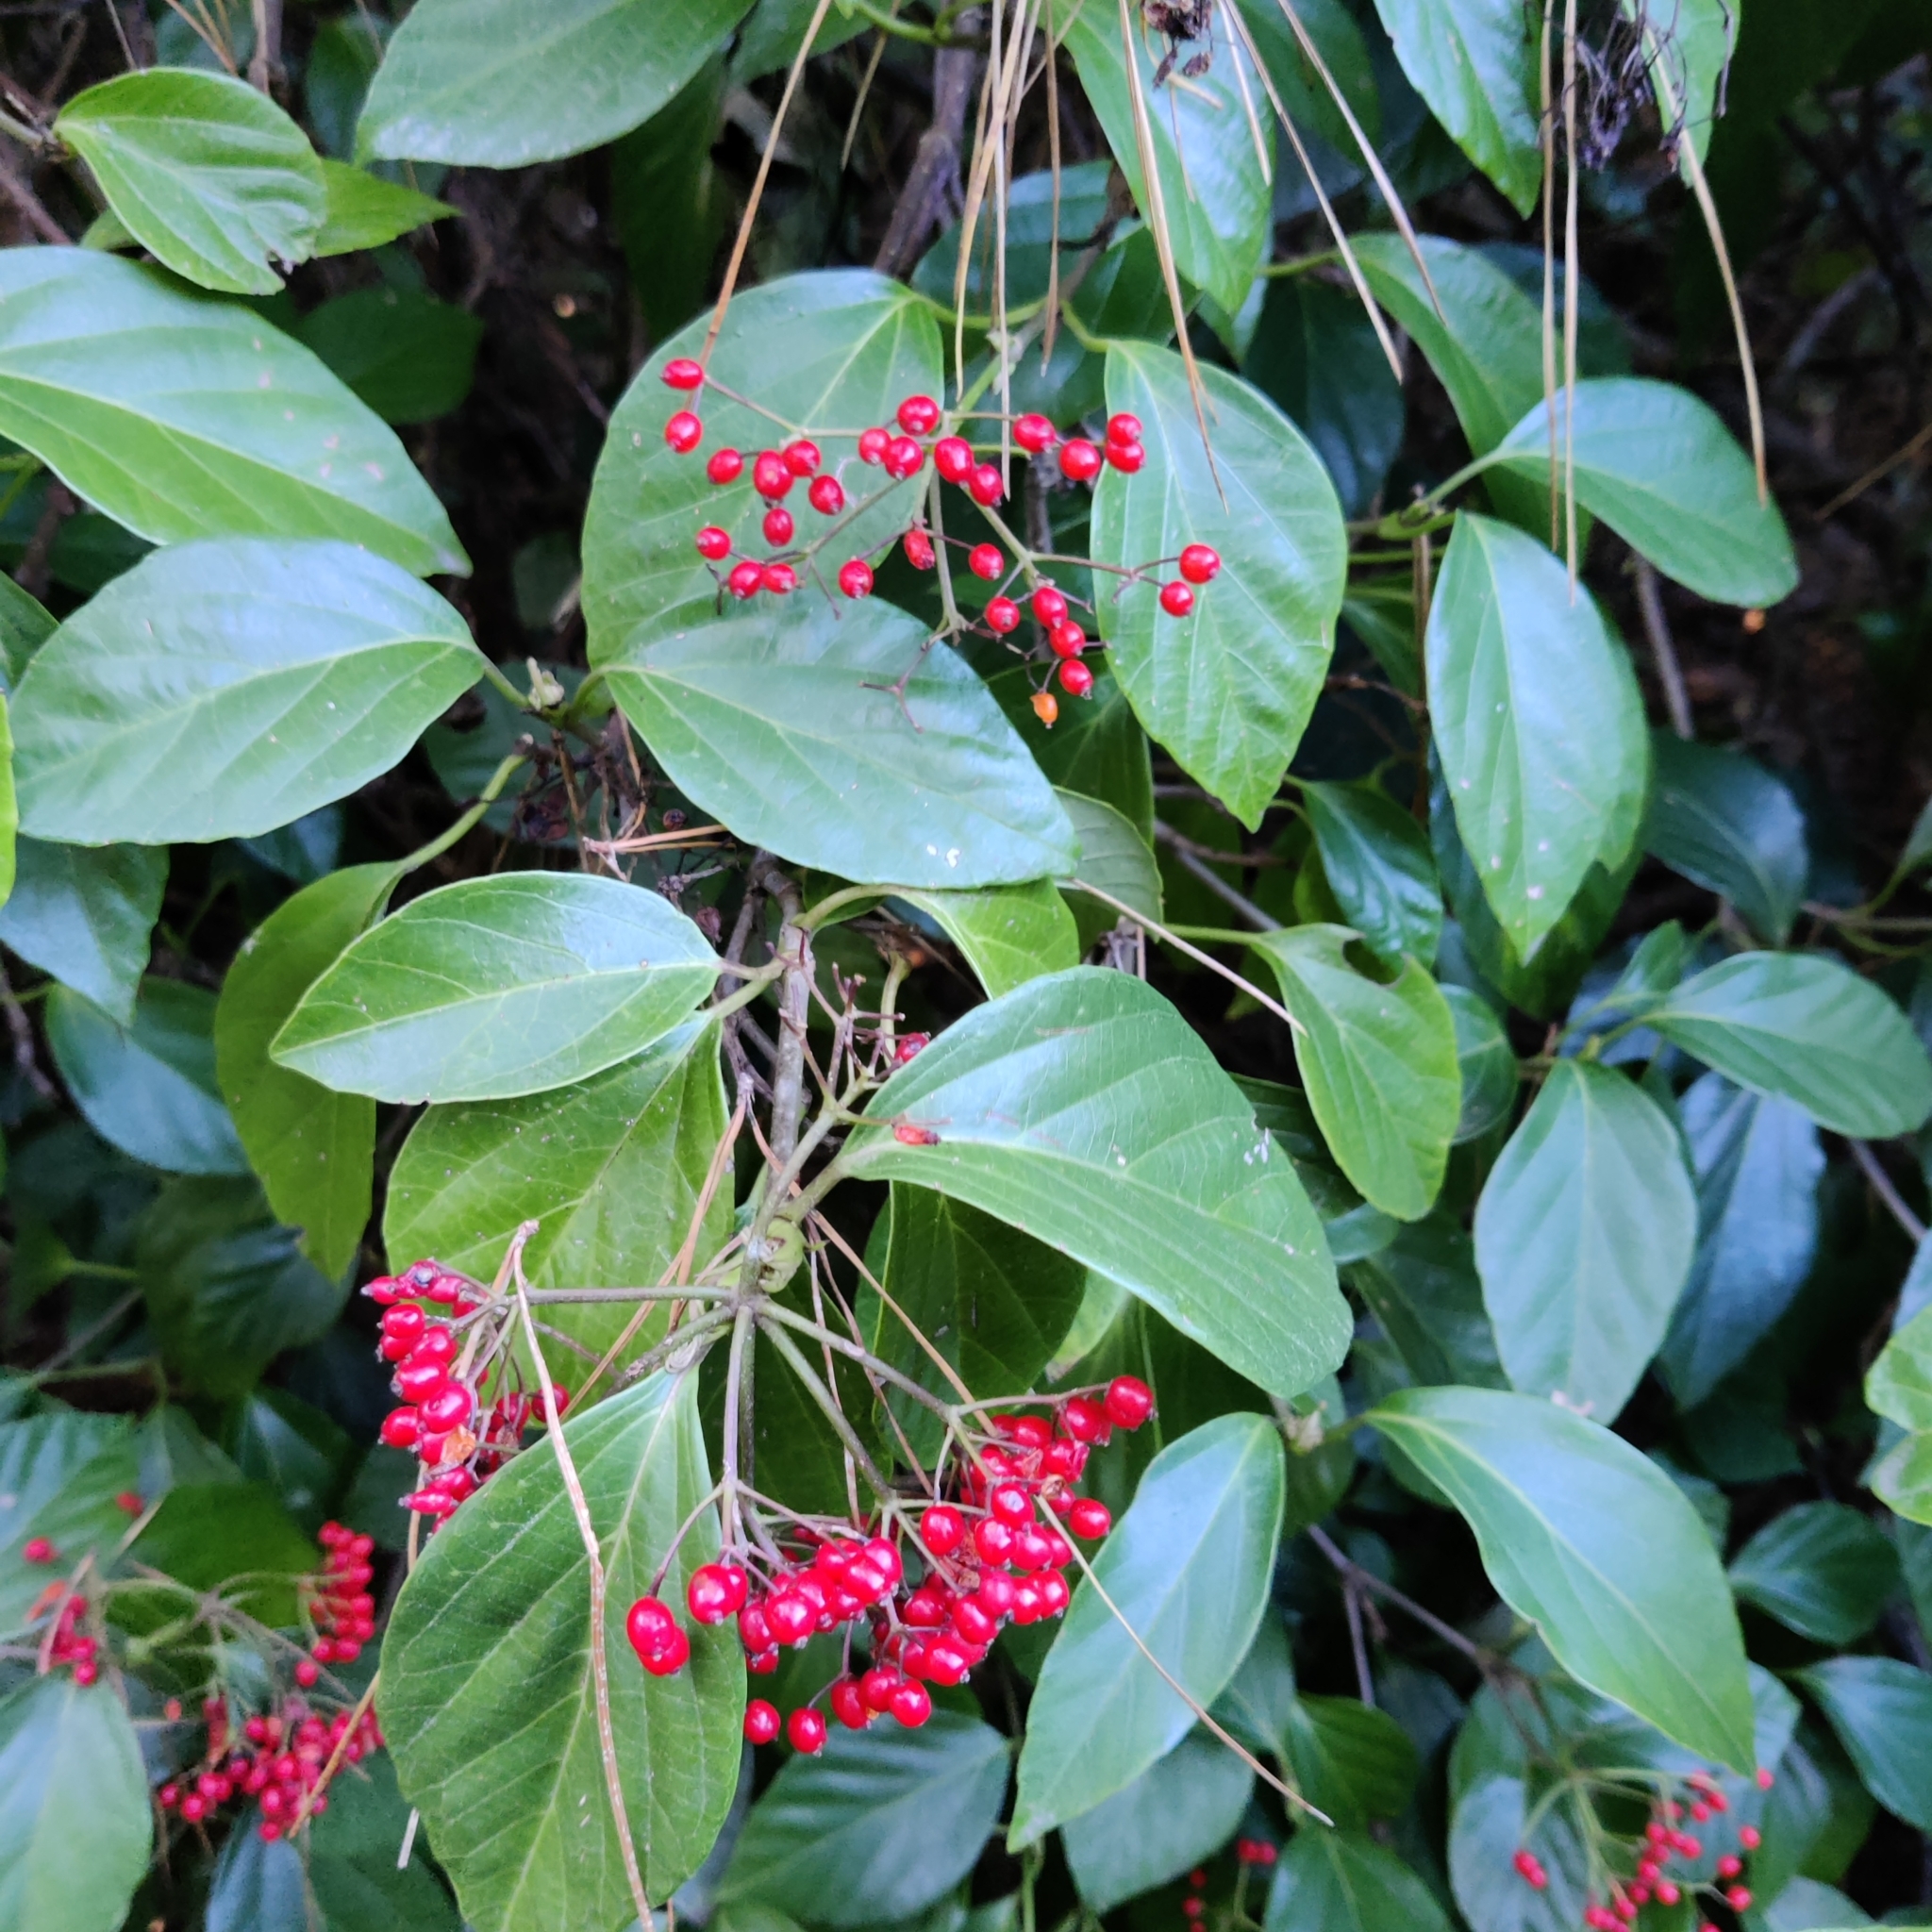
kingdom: Plantae
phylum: Tracheophyta
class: Magnoliopsida
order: Dipsacales
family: Viburnaceae
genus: Viburnum
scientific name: Viburnum tinus
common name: Laurustinus
